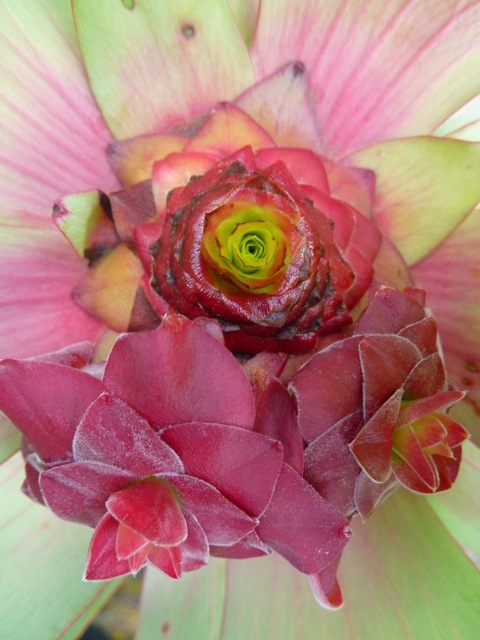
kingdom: Plantae
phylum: Tracheophyta
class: Magnoliopsida
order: Proteales
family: Proteaceae
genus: Leucadendron
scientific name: Leucadendron tinctum
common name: Spicy conebush
